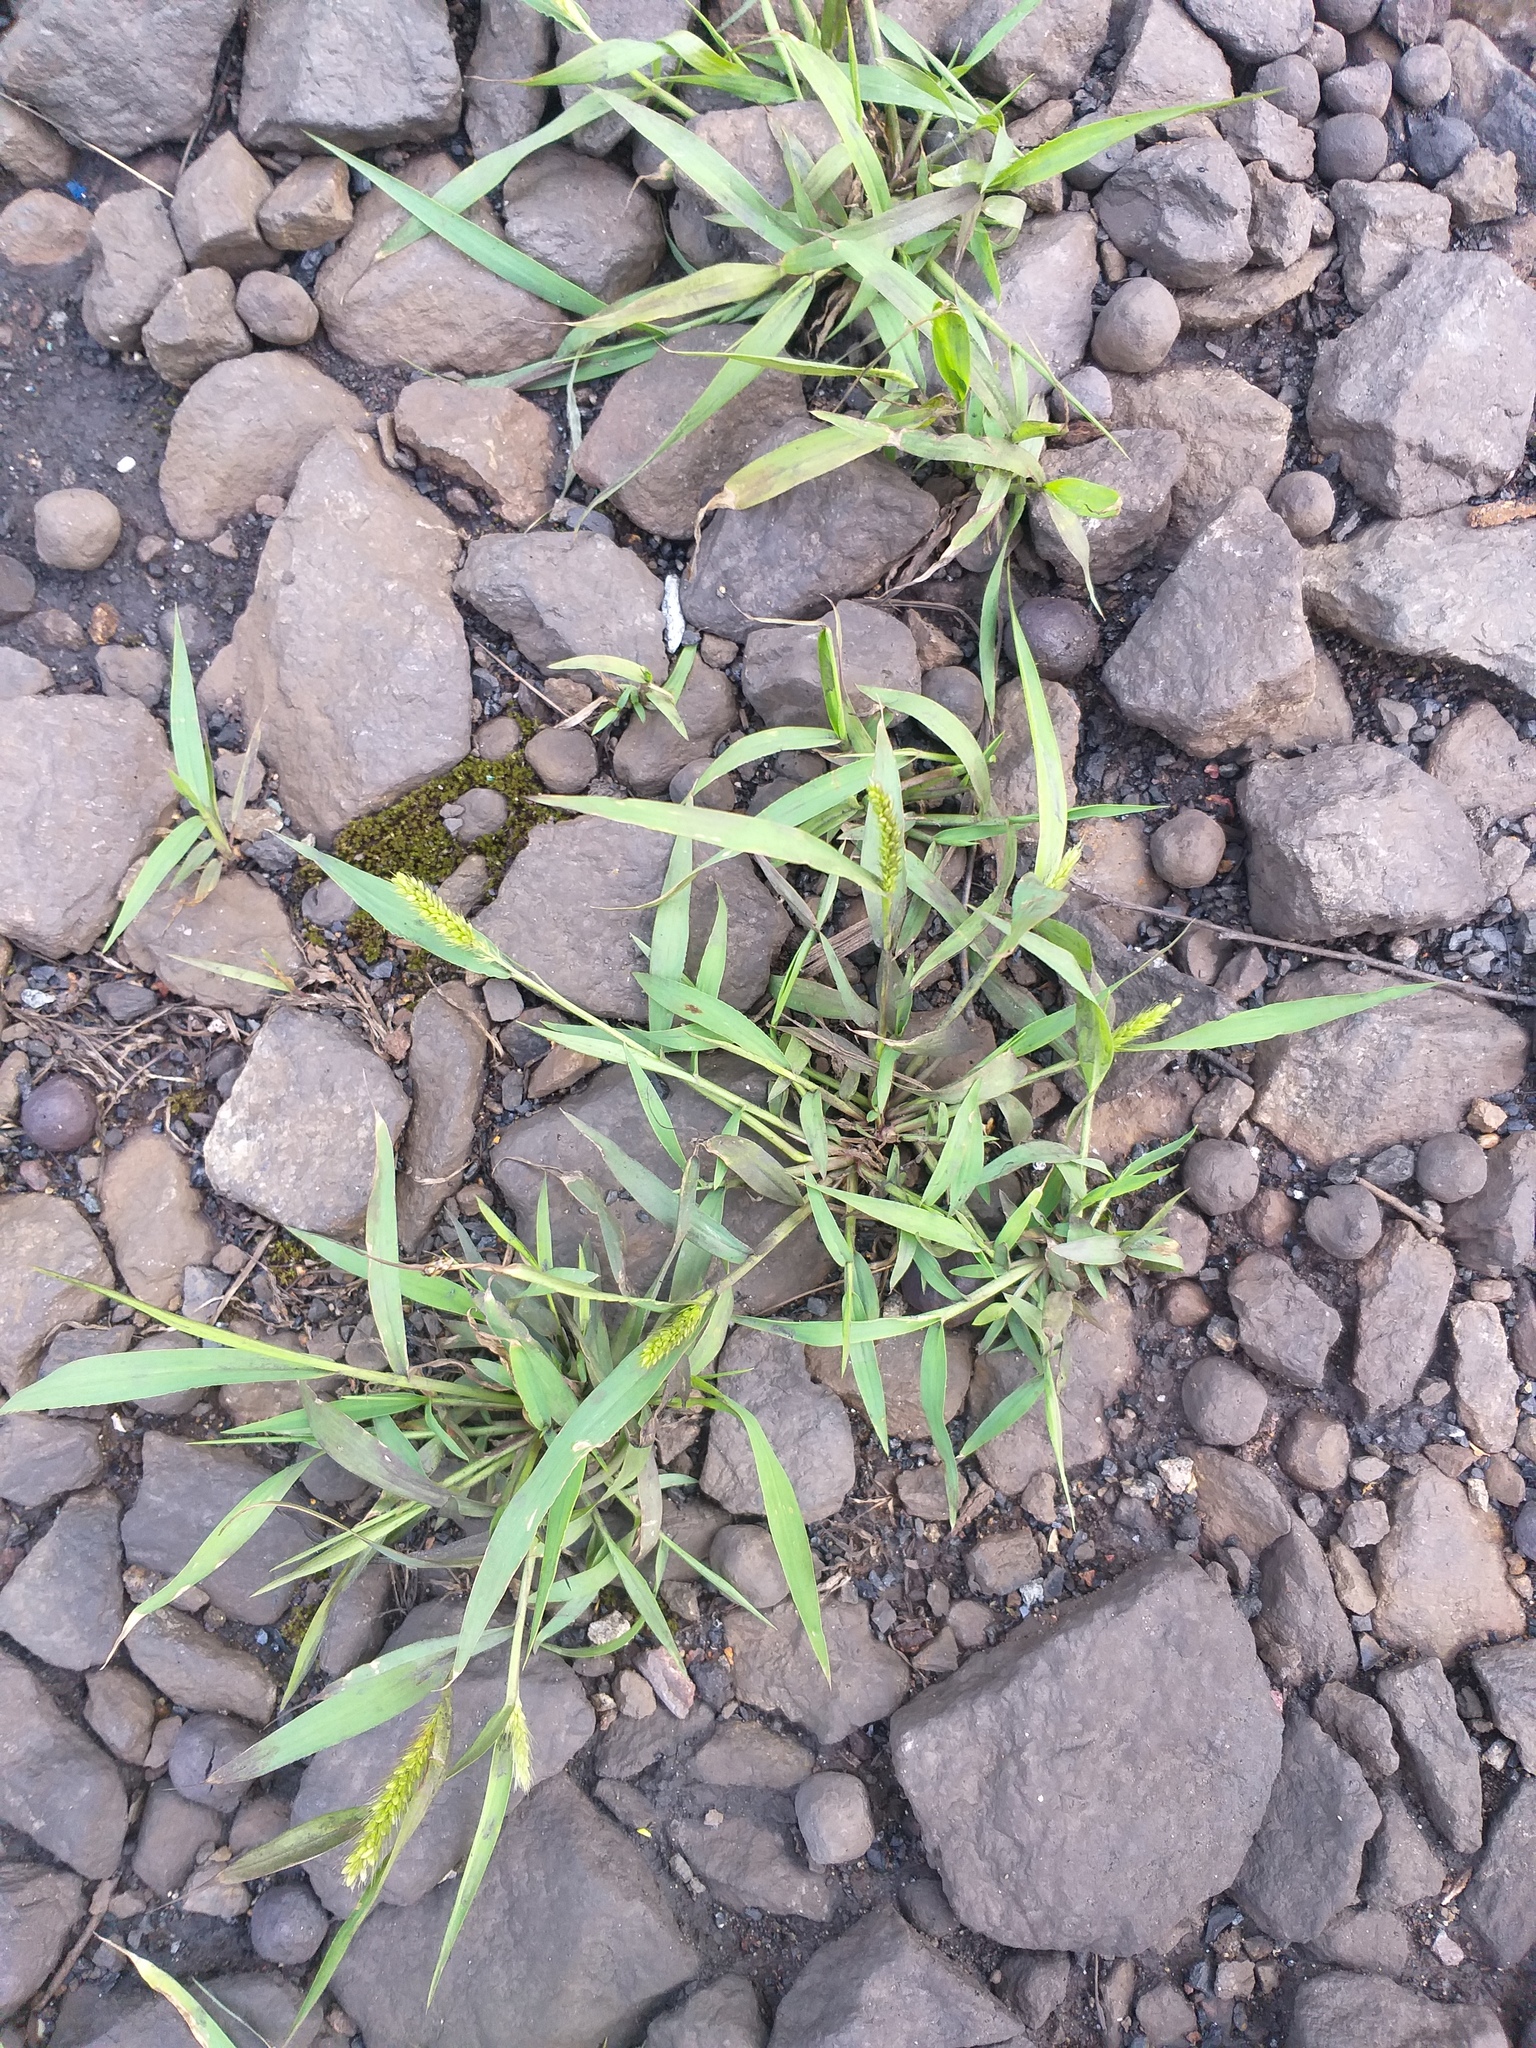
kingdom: Plantae
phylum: Tracheophyta
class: Liliopsida
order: Poales
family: Poaceae
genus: Setaria
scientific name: Setaria viridis
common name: Green bristlegrass
